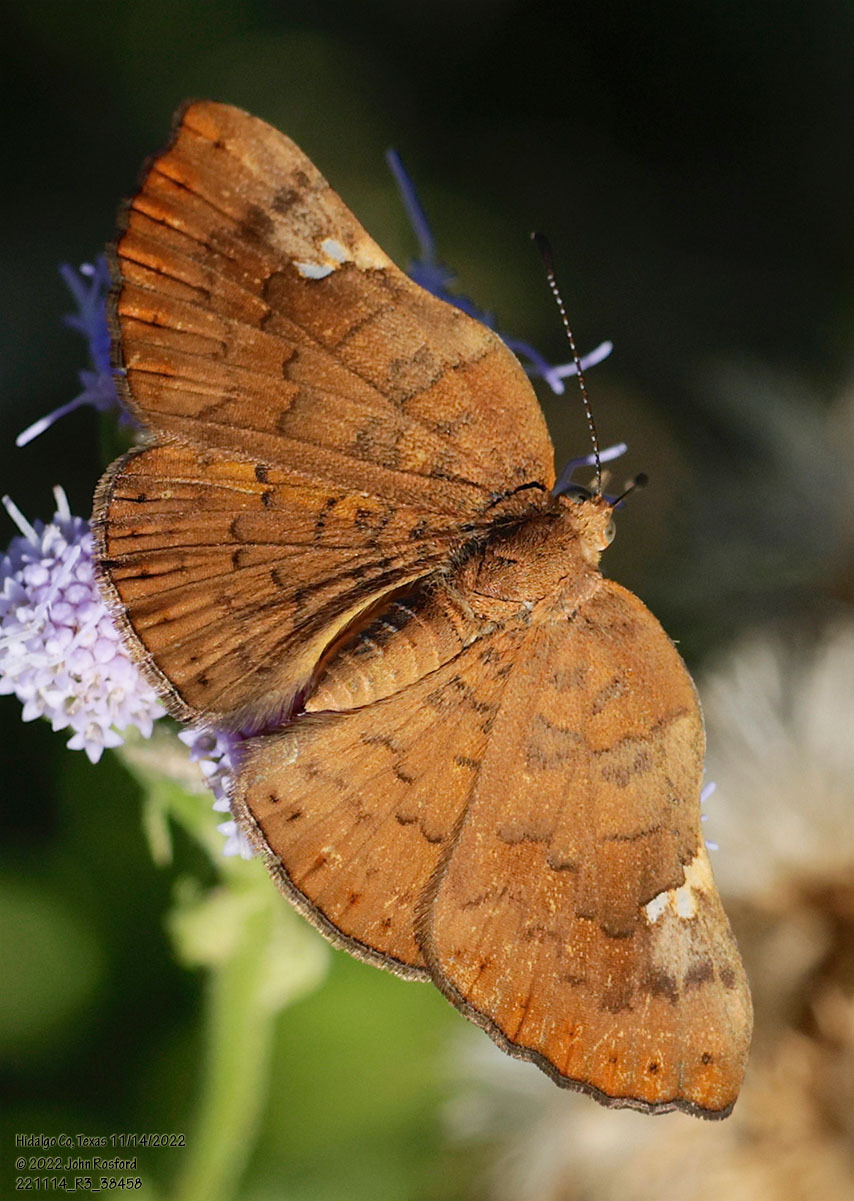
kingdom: Animalia
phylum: Arthropoda
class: Insecta
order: Lepidoptera
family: Riodinidae
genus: Curvie
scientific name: Curvie emesia
